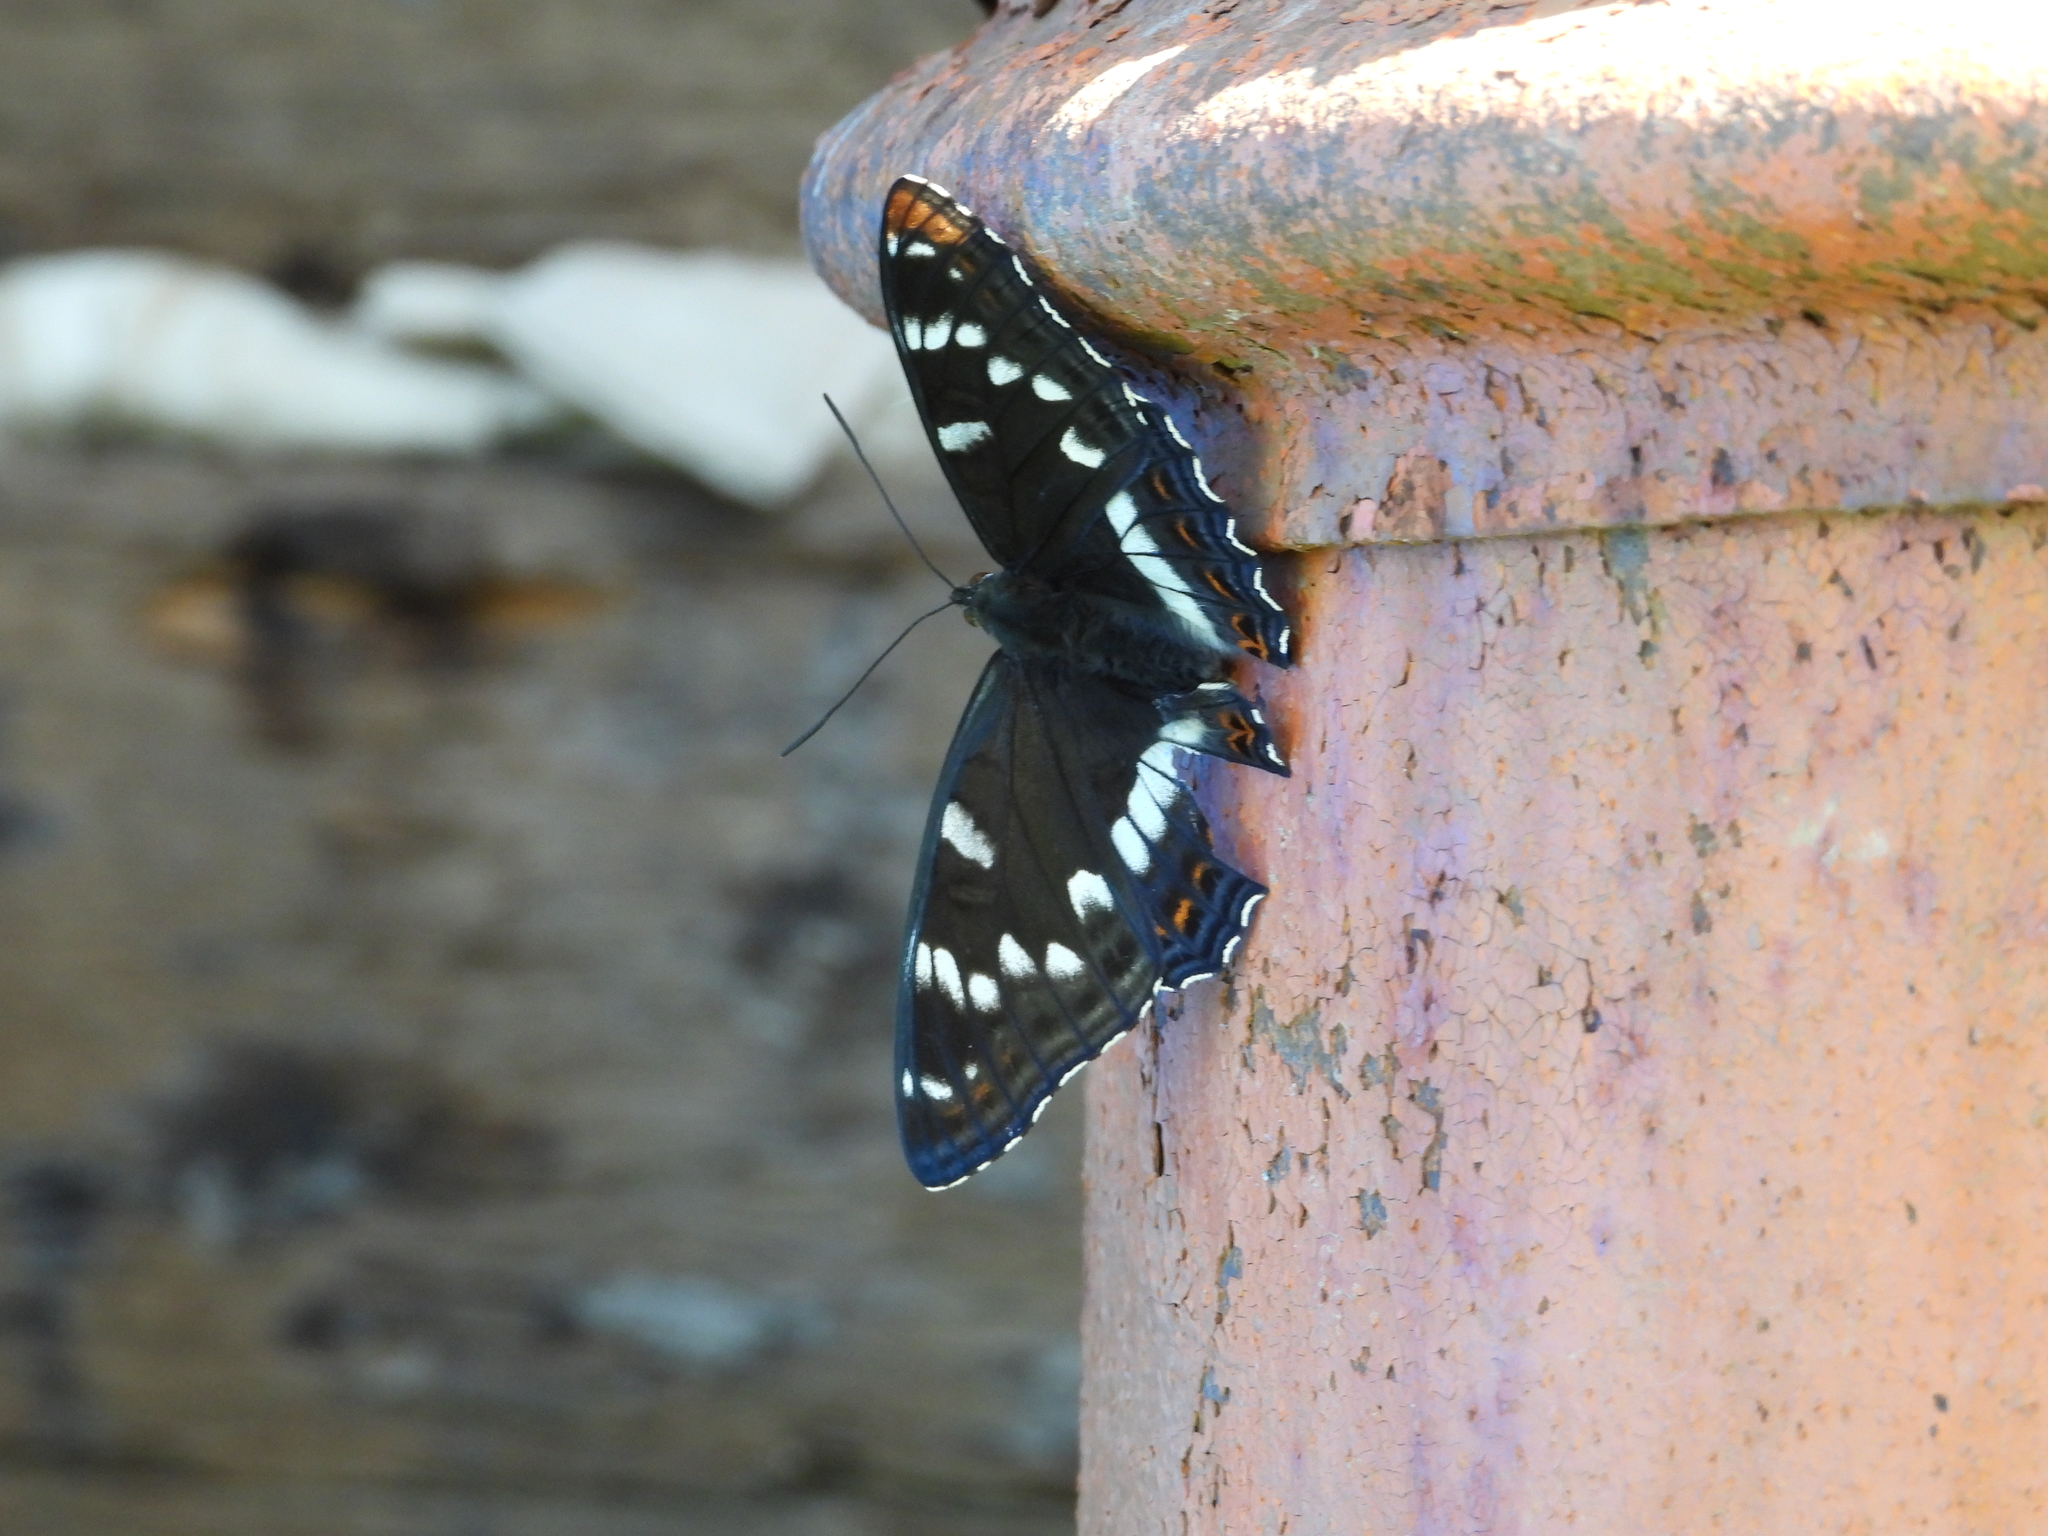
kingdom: Animalia
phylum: Arthropoda
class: Insecta
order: Lepidoptera
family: Nymphalidae
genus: Limenitis
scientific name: Limenitis populi
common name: Poplar admiral
